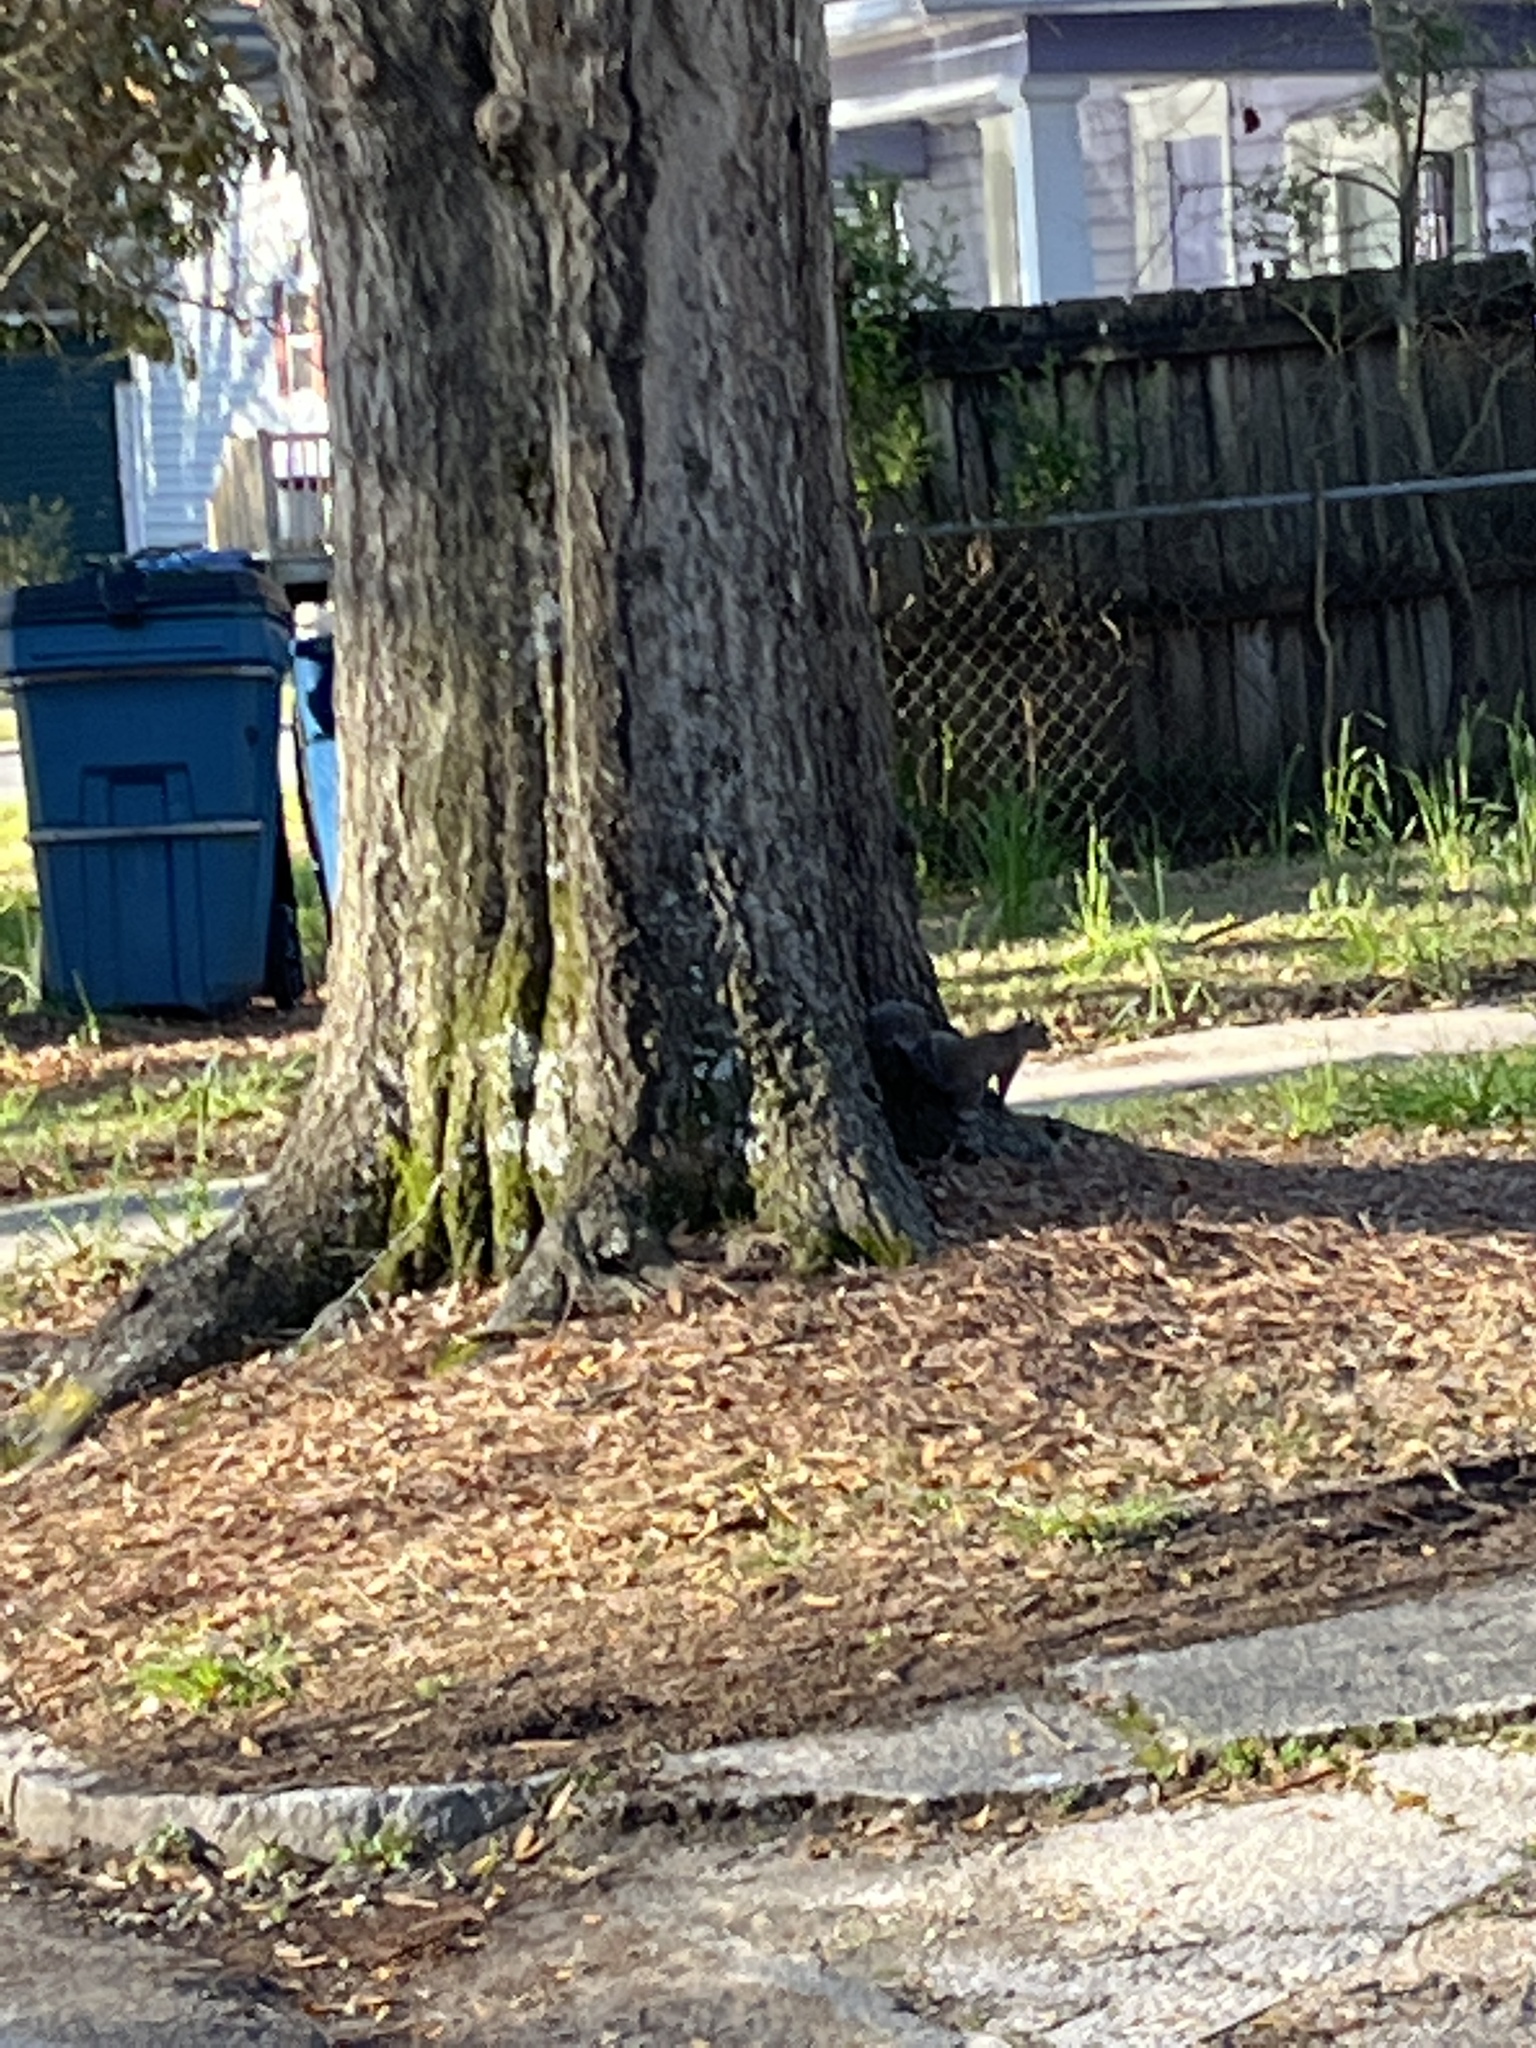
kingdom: Animalia
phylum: Chordata
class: Mammalia
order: Rodentia
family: Sciuridae
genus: Sciurus
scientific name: Sciurus carolinensis
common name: Eastern gray squirrel
